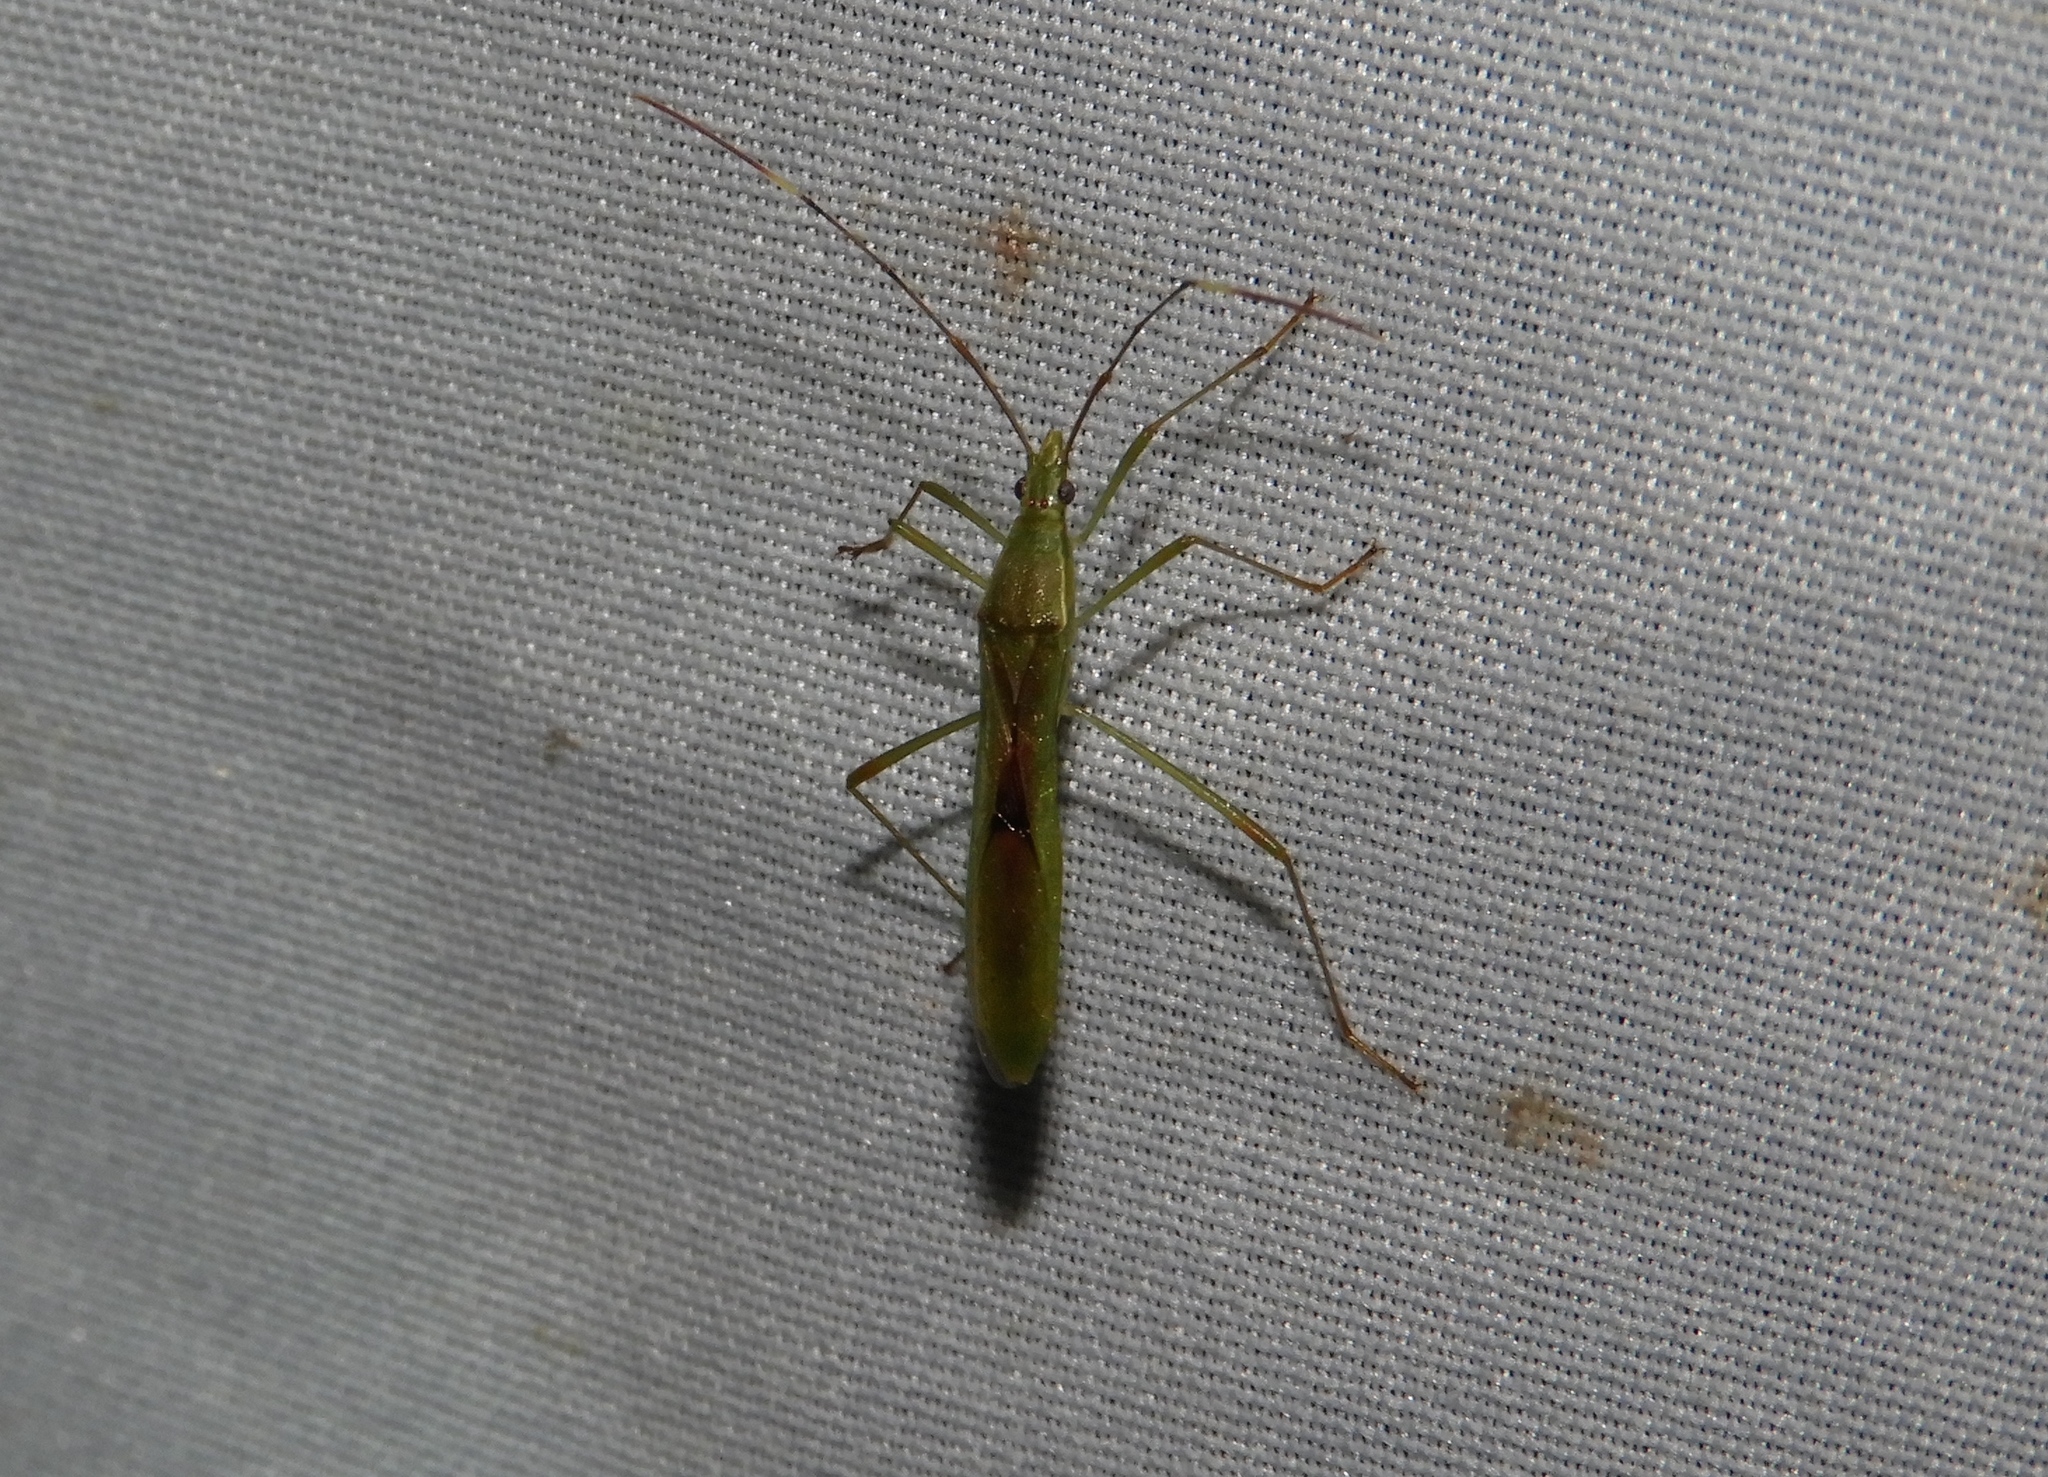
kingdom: Animalia
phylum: Arthropoda
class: Insecta
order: Hemiptera
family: Alydidae
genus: Stenocoris
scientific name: Stenocoris
